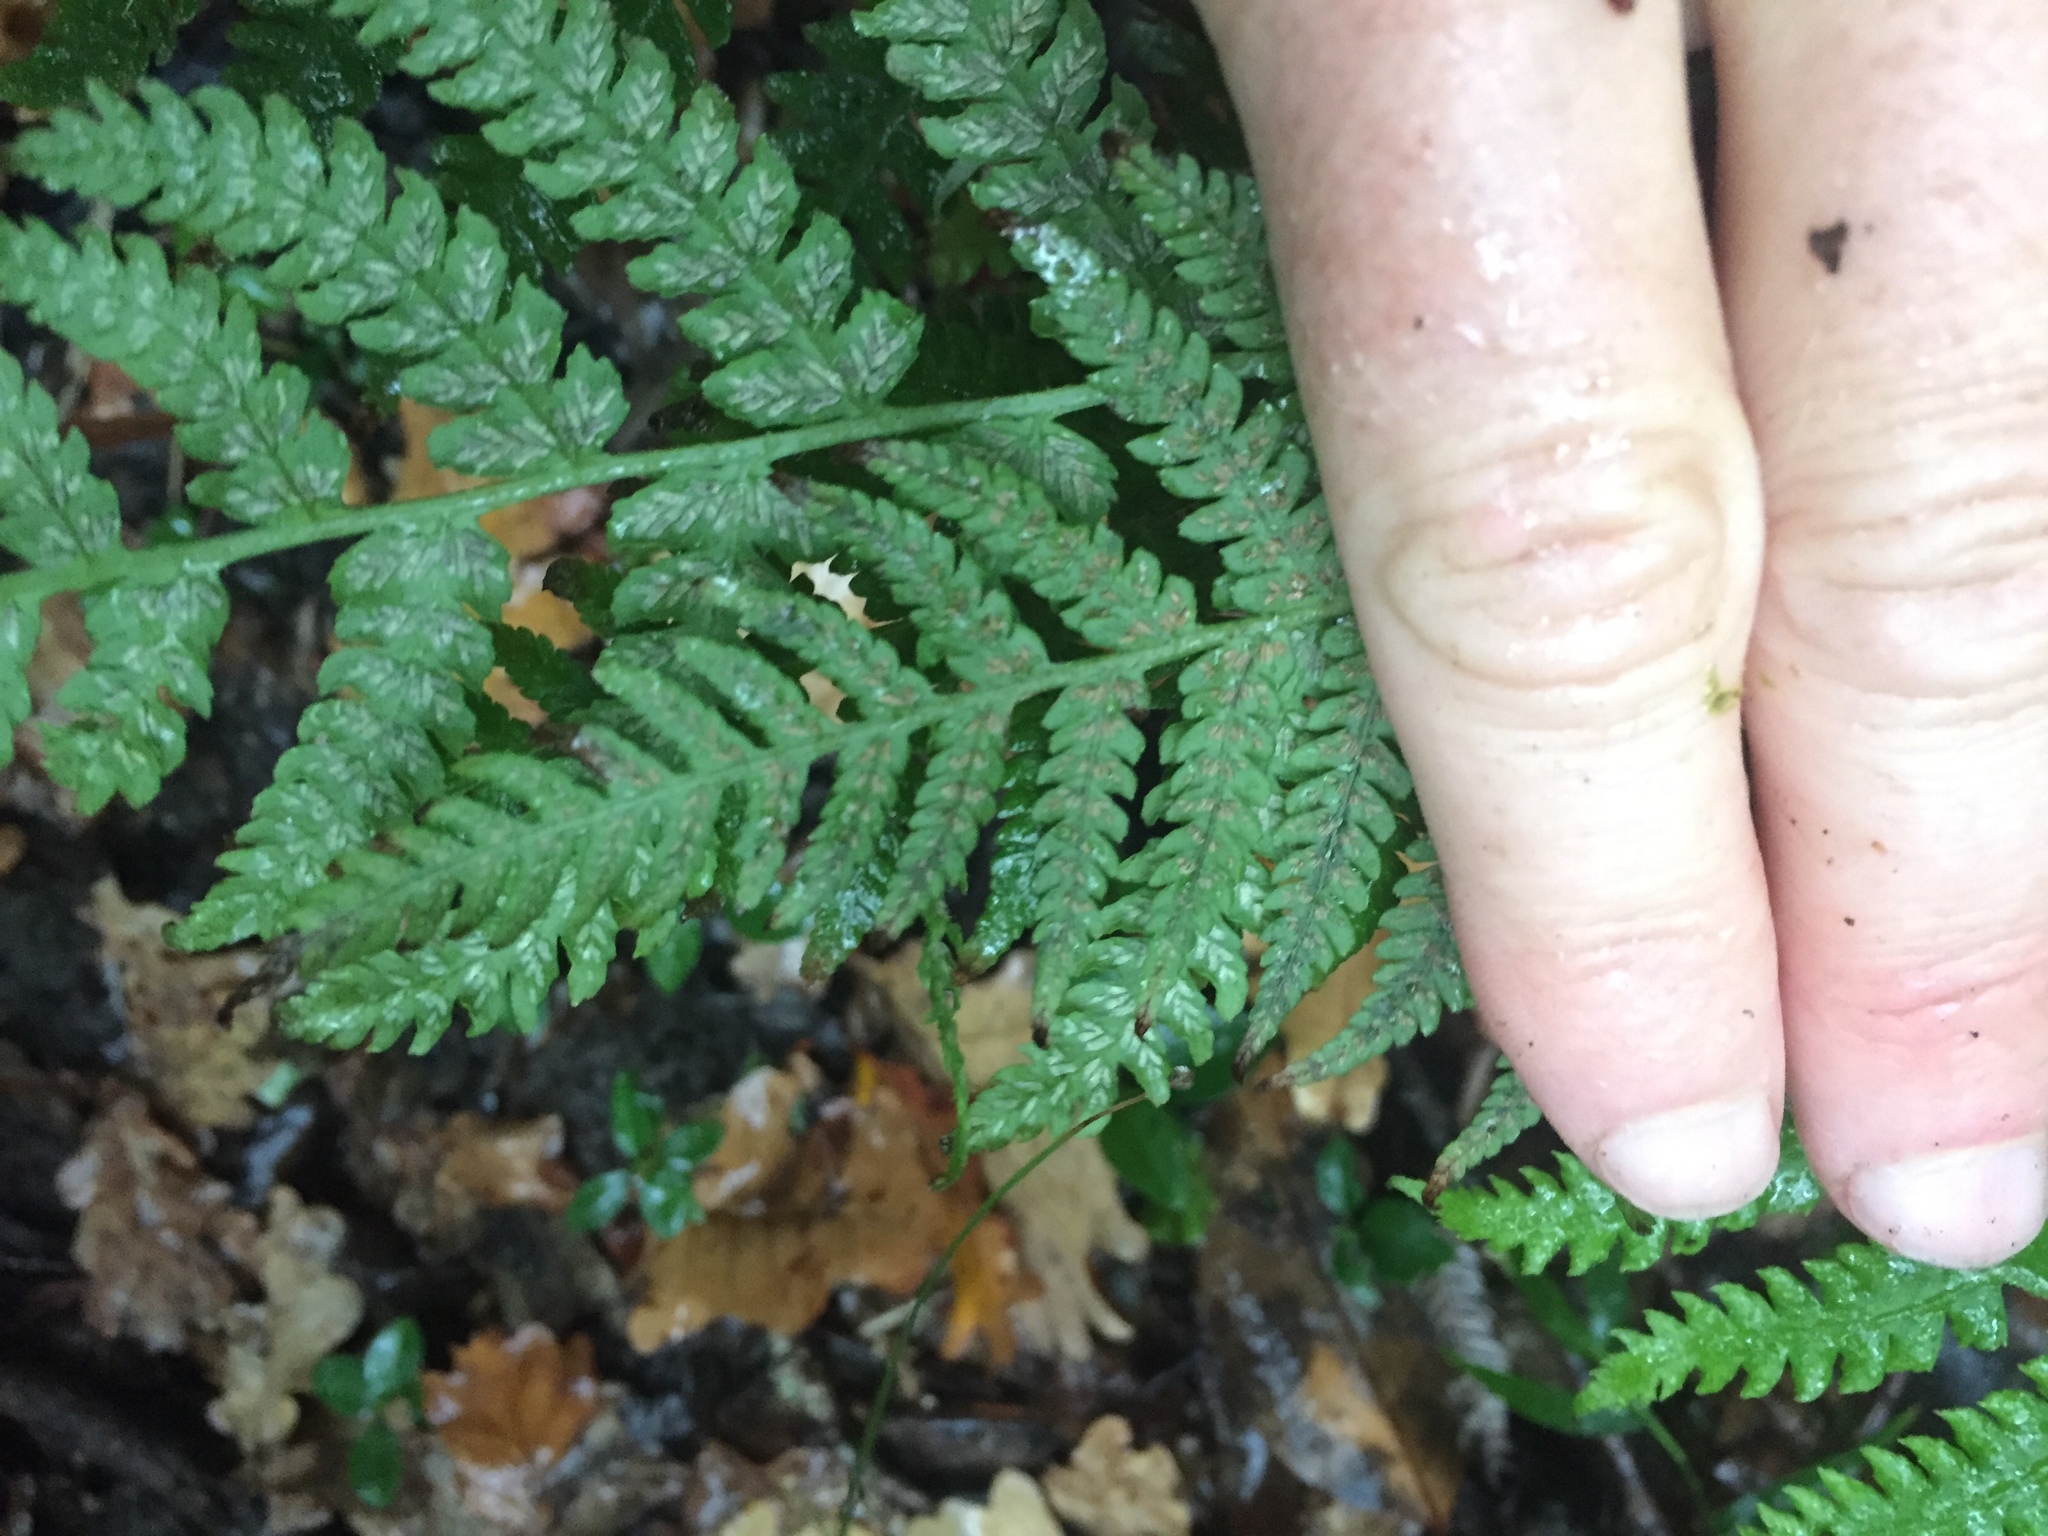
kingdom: Plantae
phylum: Tracheophyta
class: Polypodiopsida
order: Polypodiales
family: Athyriaceae
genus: Deparia
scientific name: Deparia petersenii
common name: Japanese false spleenwort
